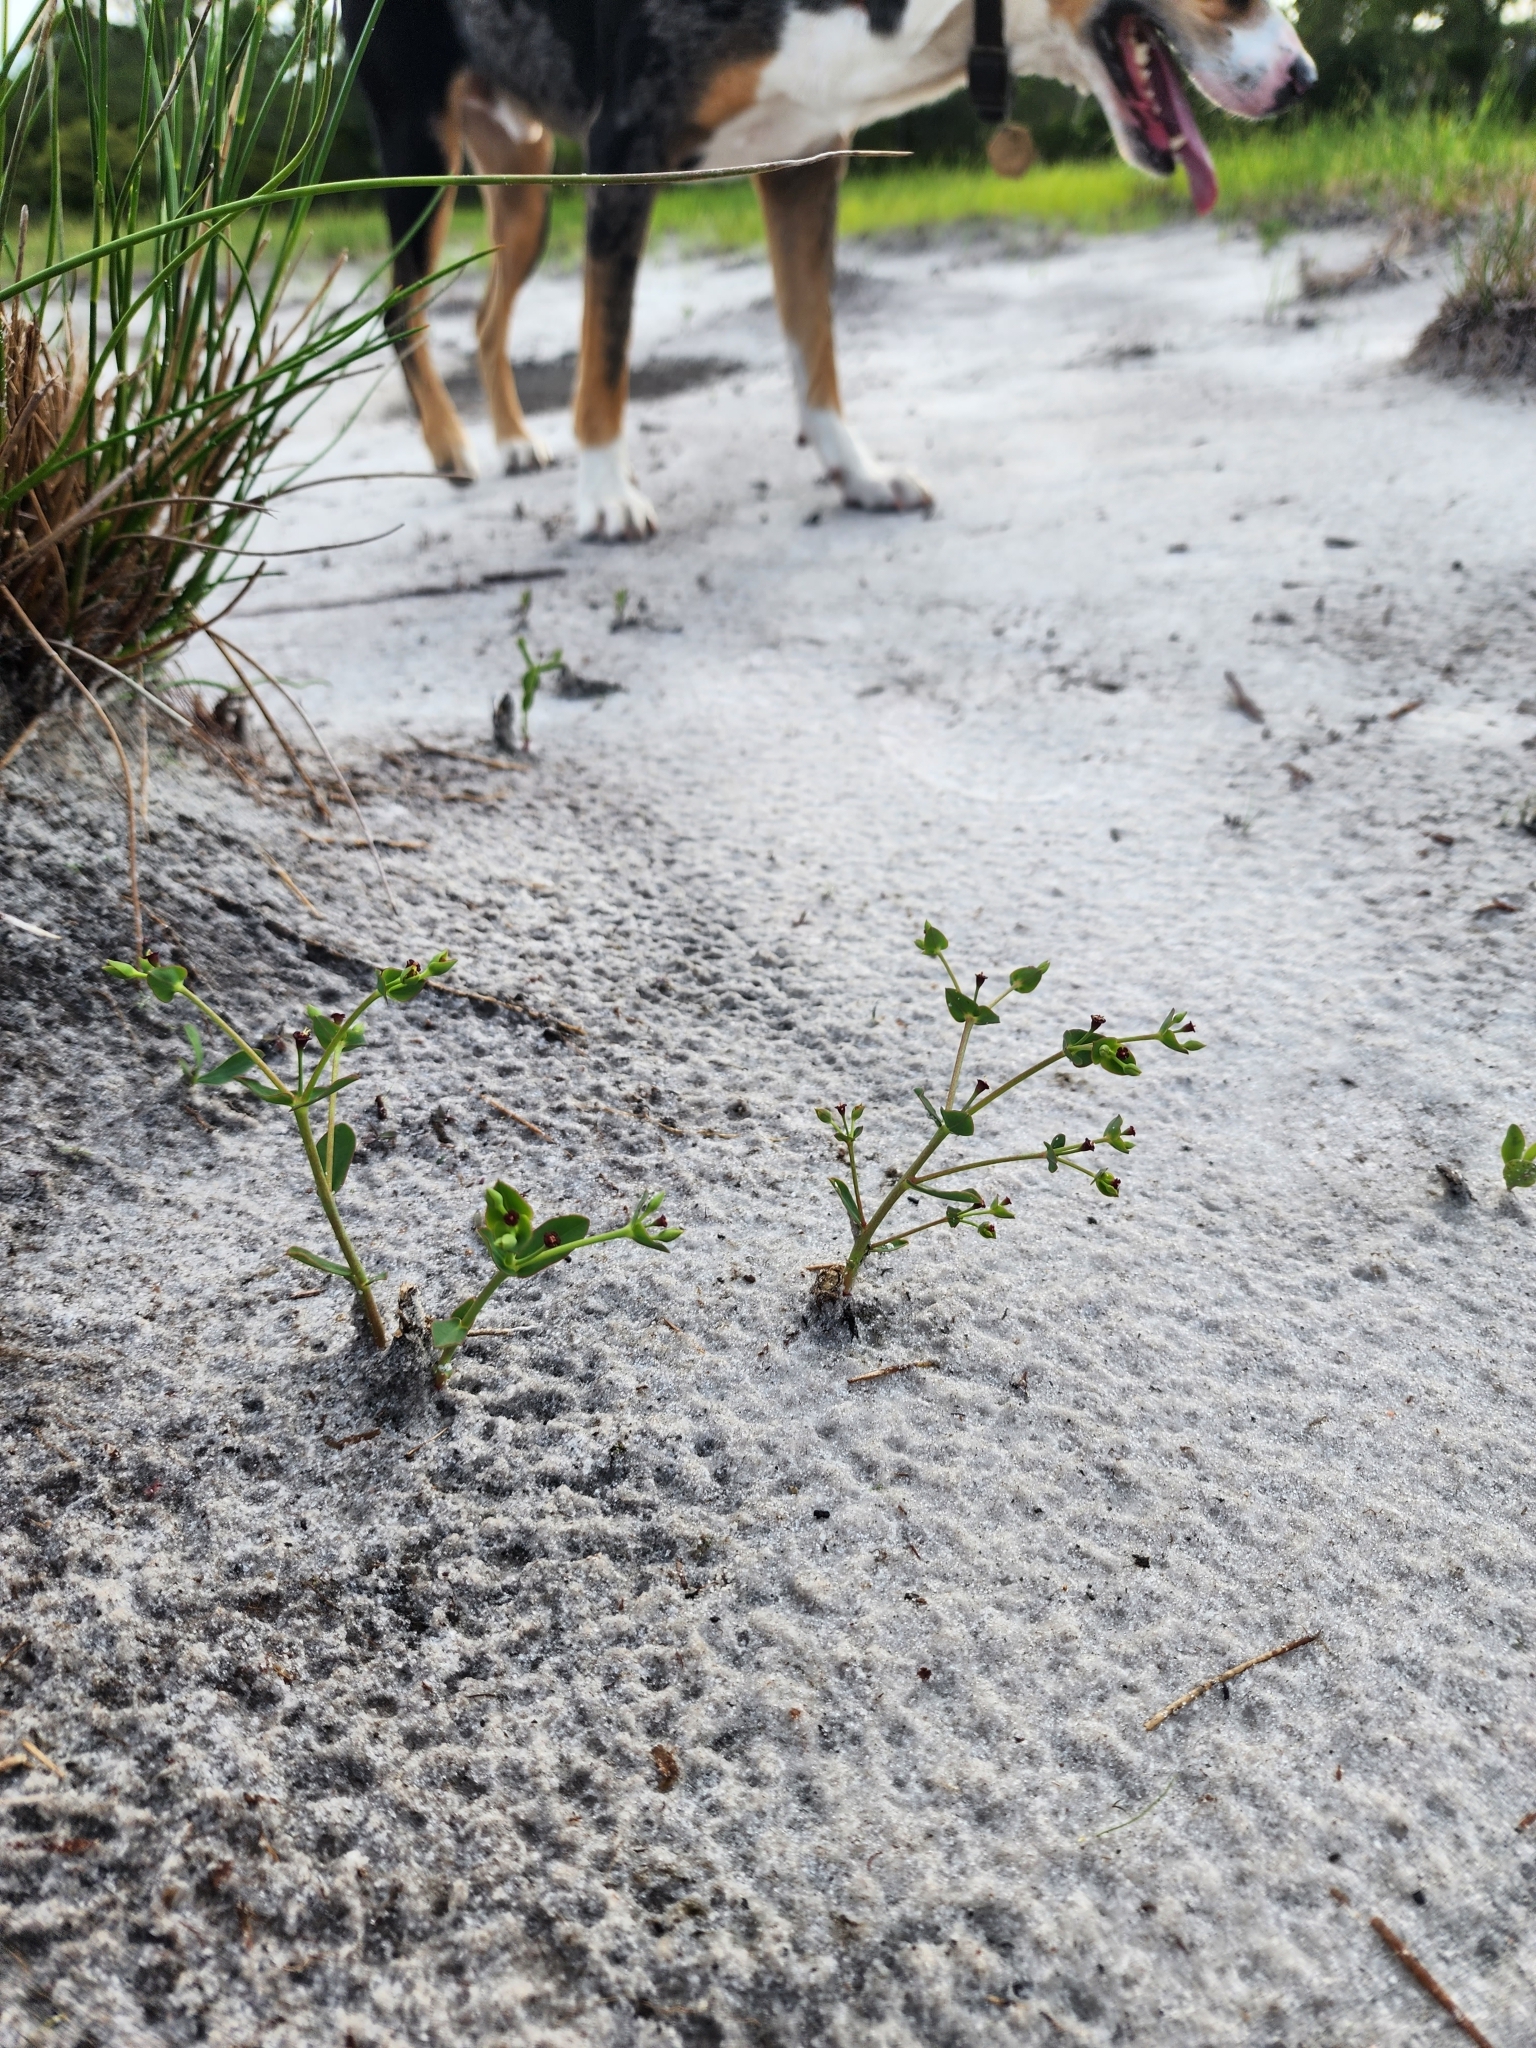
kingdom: Plantae
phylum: Tracheophyta
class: Magnoliopsida
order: Malpighiales
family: Euphorbiaceae
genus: Euphorbia
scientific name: Euphorbia telephioides
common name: Telephus spurge
